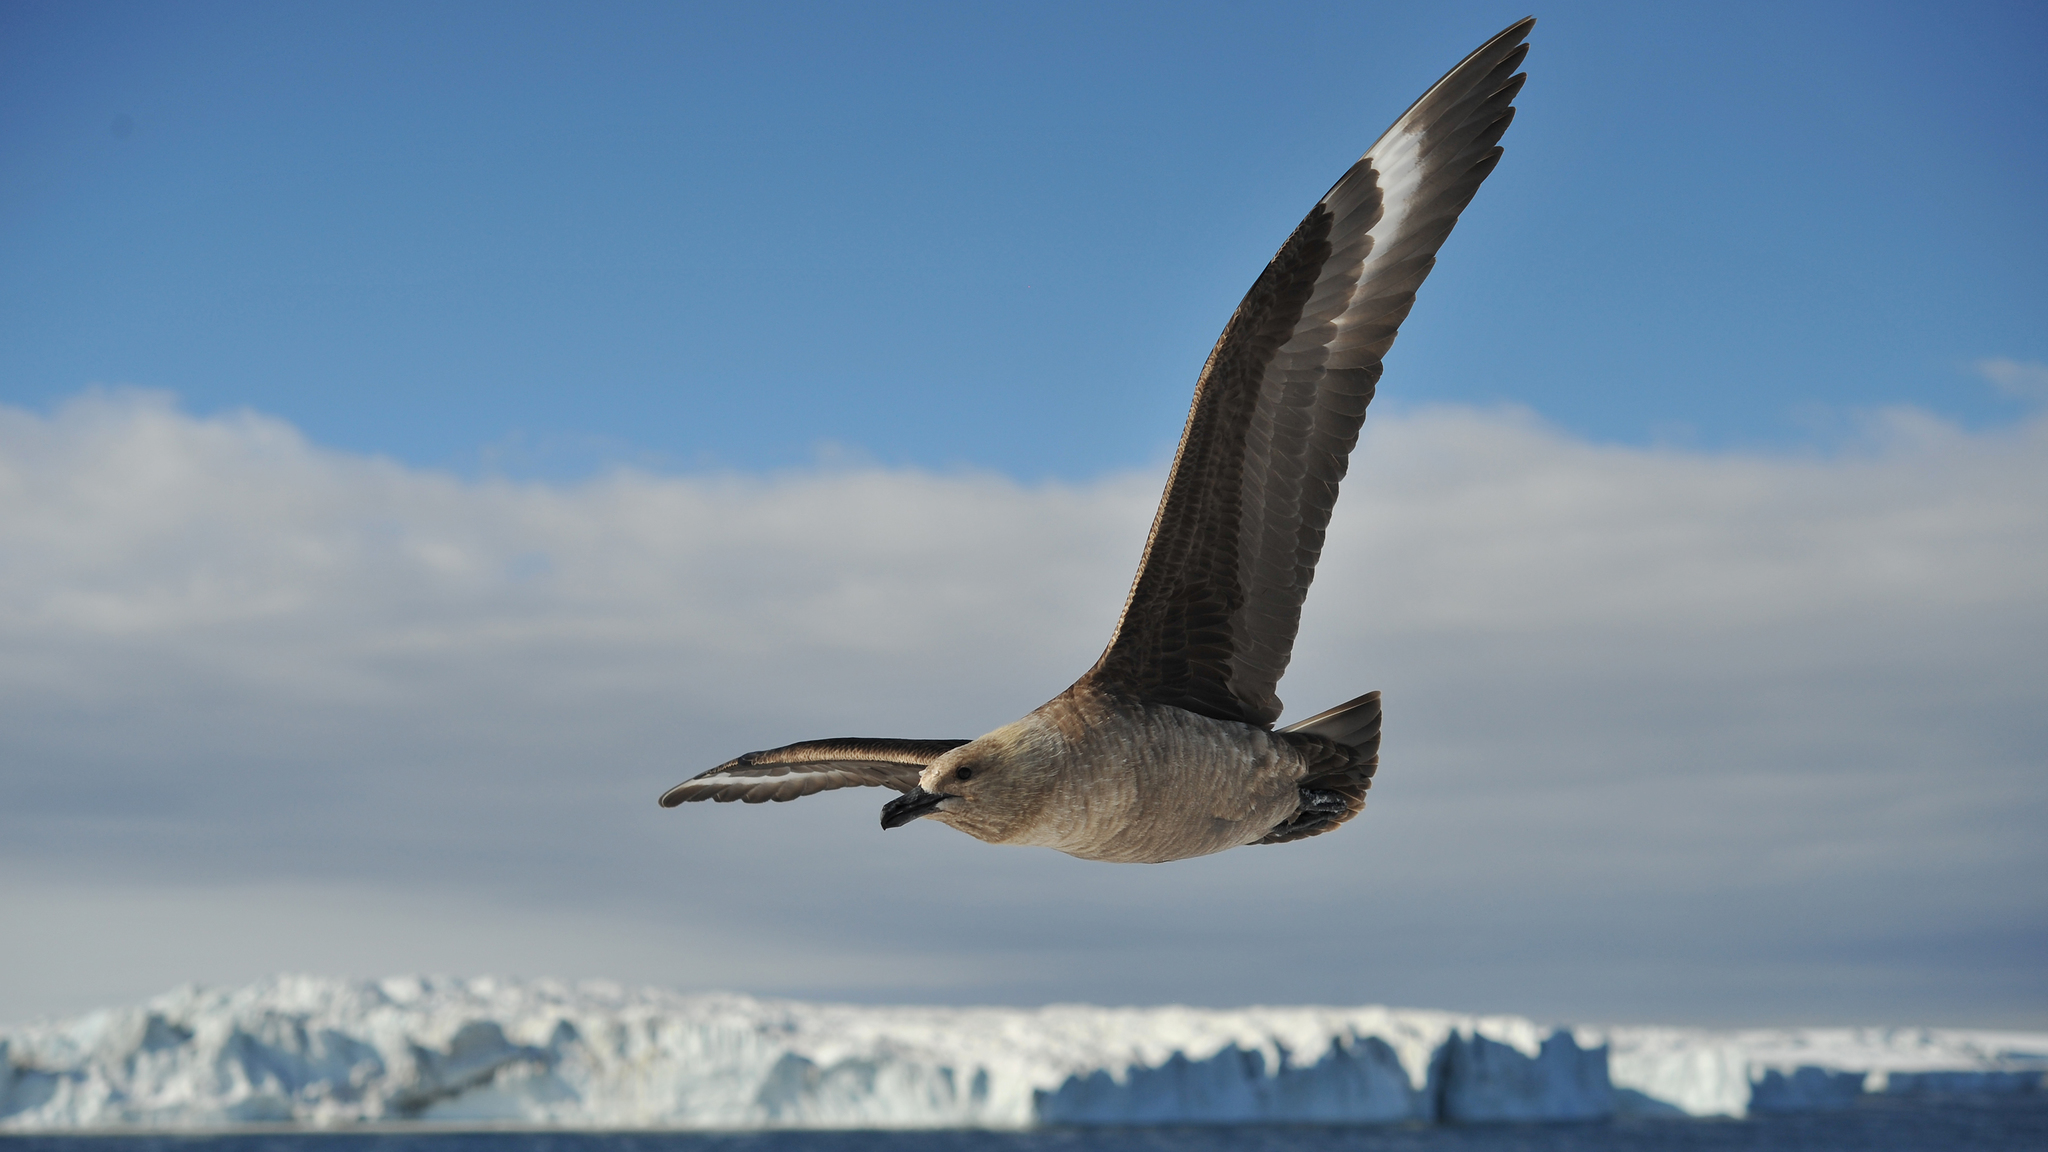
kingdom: Animalia
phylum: Chordata
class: Aves
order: Charadriiformes
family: Stercorariidae
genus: Stercorarius
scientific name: Stercorarius maccormicki
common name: South polar skua
